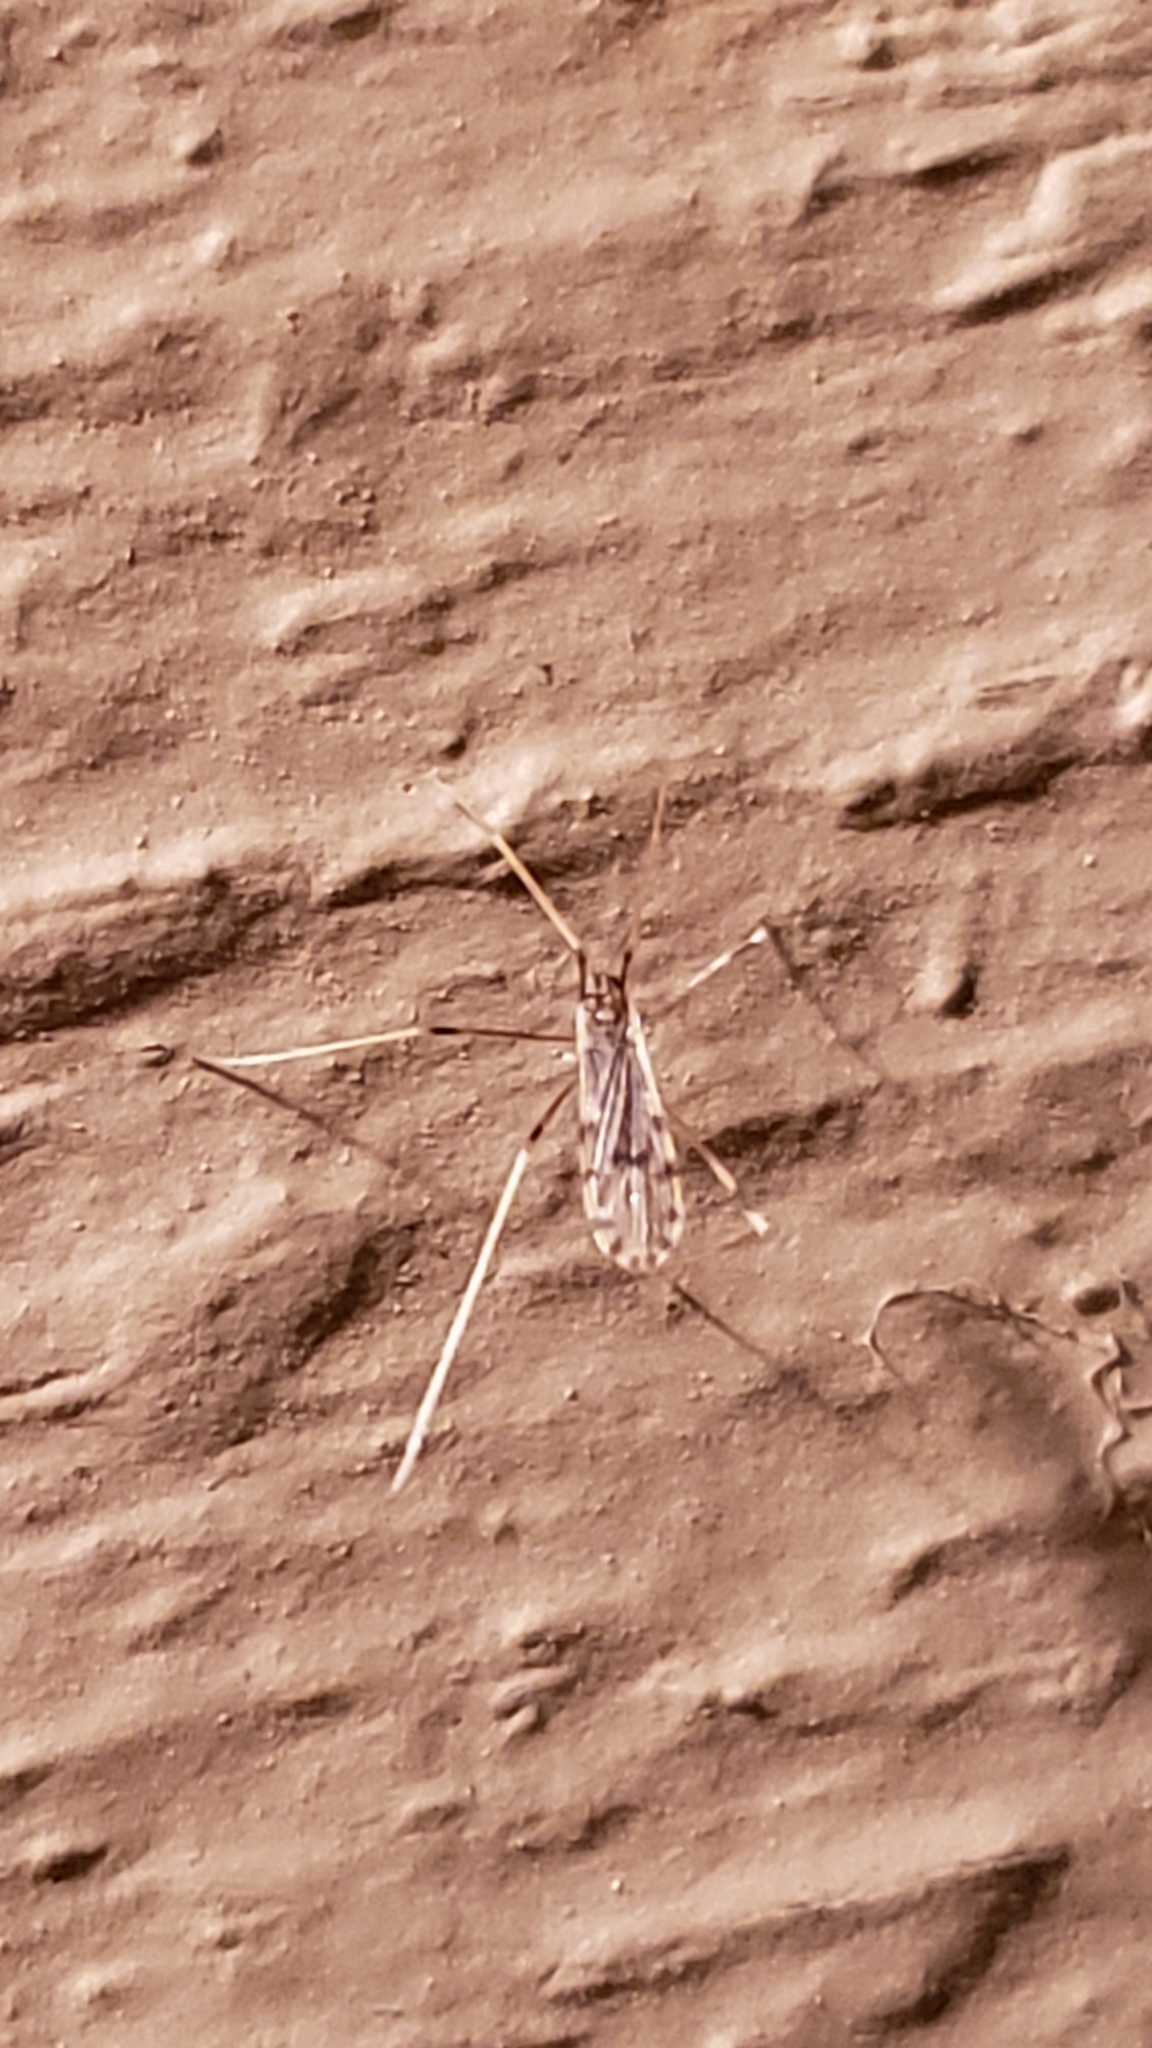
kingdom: Animalia
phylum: Arthropoda
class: Insecta
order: Diptera
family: Limoniidae
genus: Erioptera
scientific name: Erioptera parva
